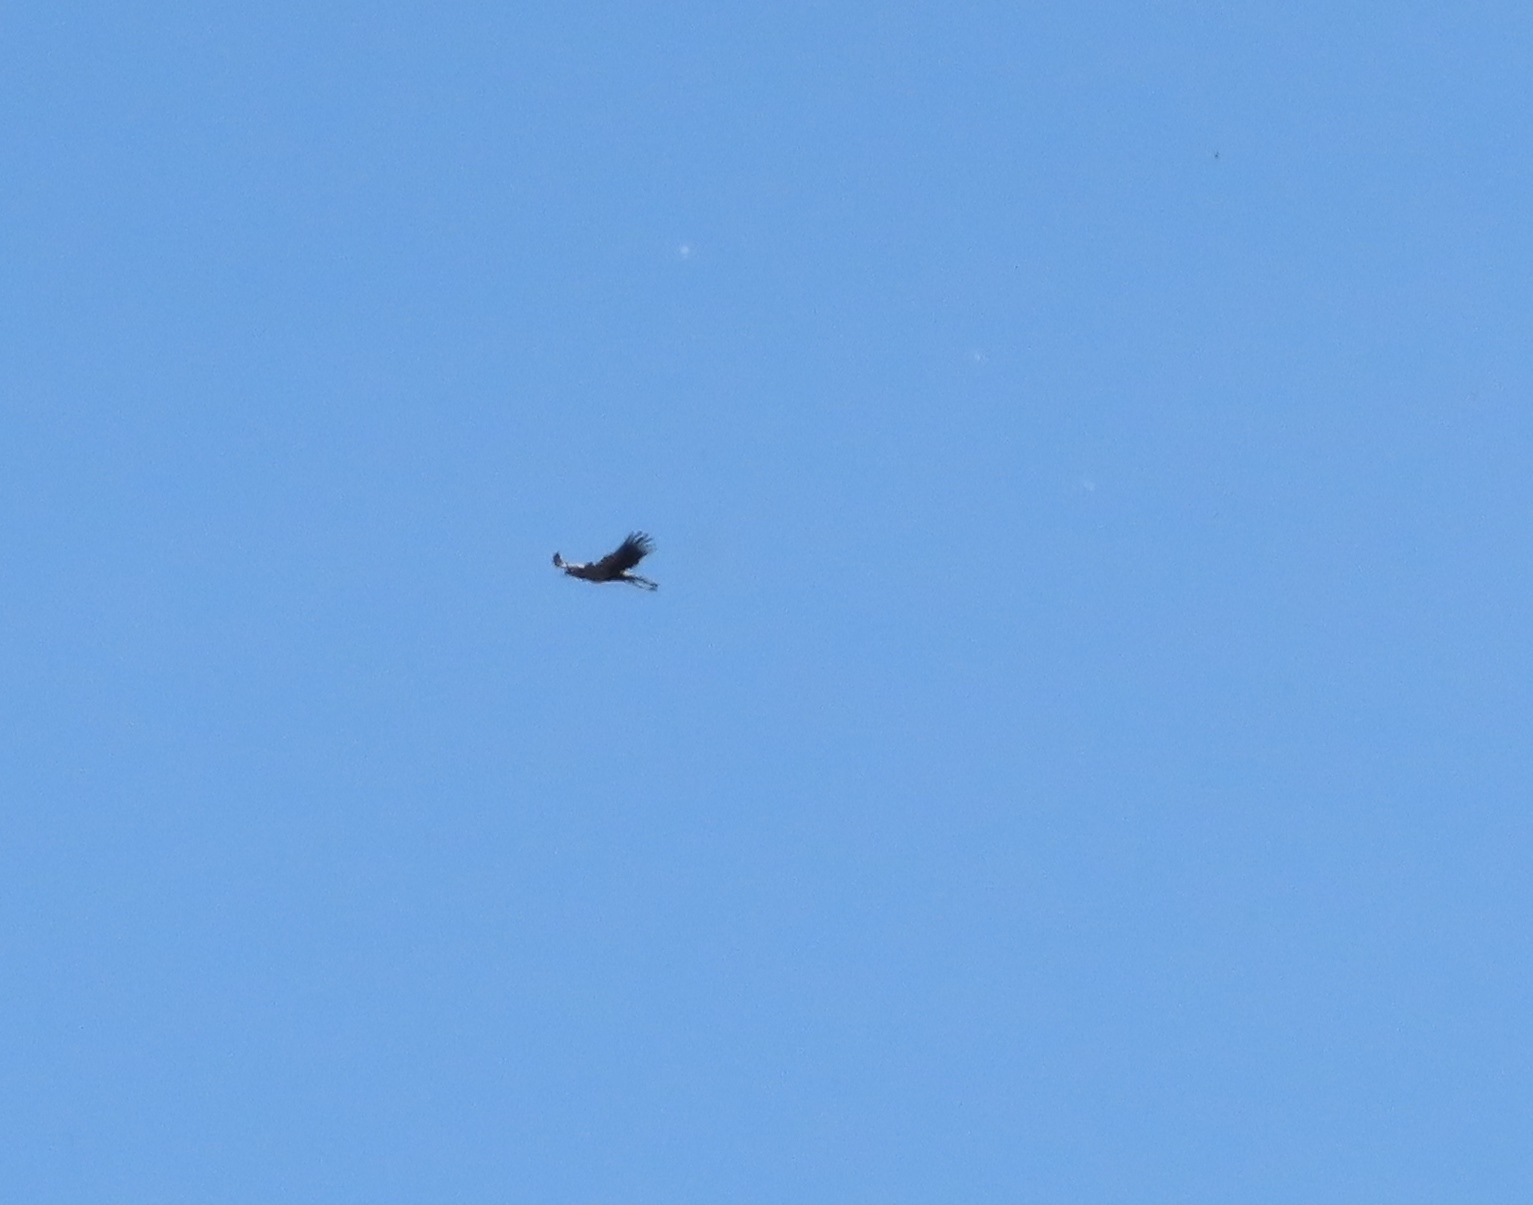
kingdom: Animalia
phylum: Chordata
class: Aves
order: Accipitriformes
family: Sagittariidae
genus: Sagittarius
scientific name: Sagittarius serpentarius
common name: Secretarybird
